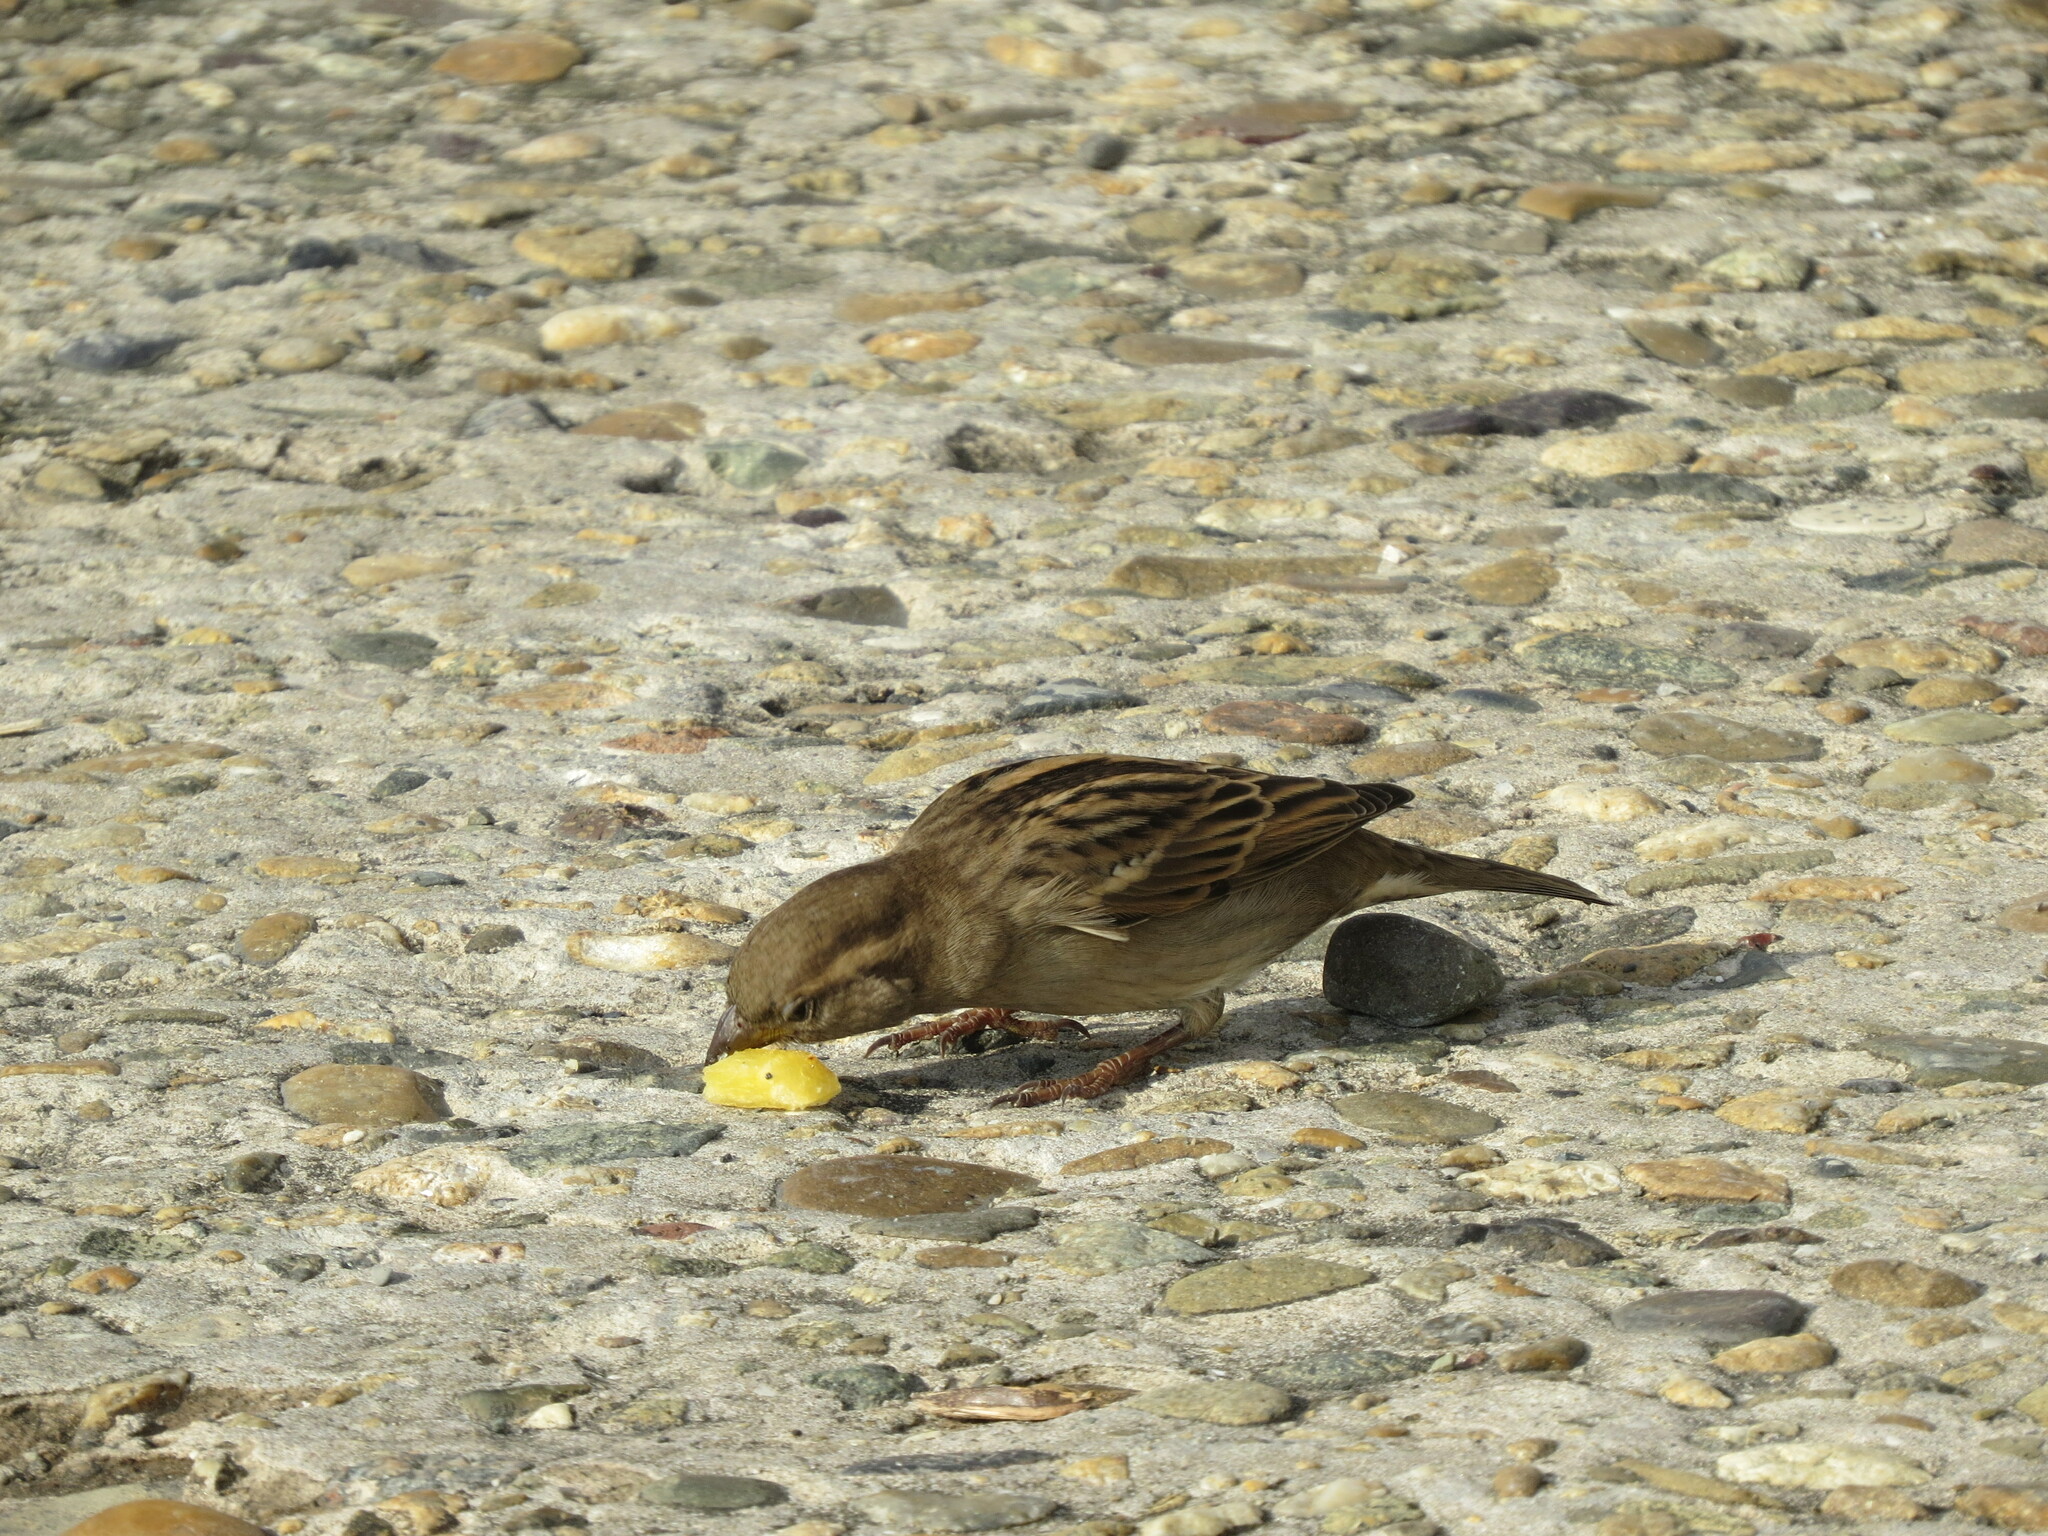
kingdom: Animalia
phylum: Chordata
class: Aves
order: Passeriformes
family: Passeridae
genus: Passer
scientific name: Passer domesticus
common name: House sparrow
